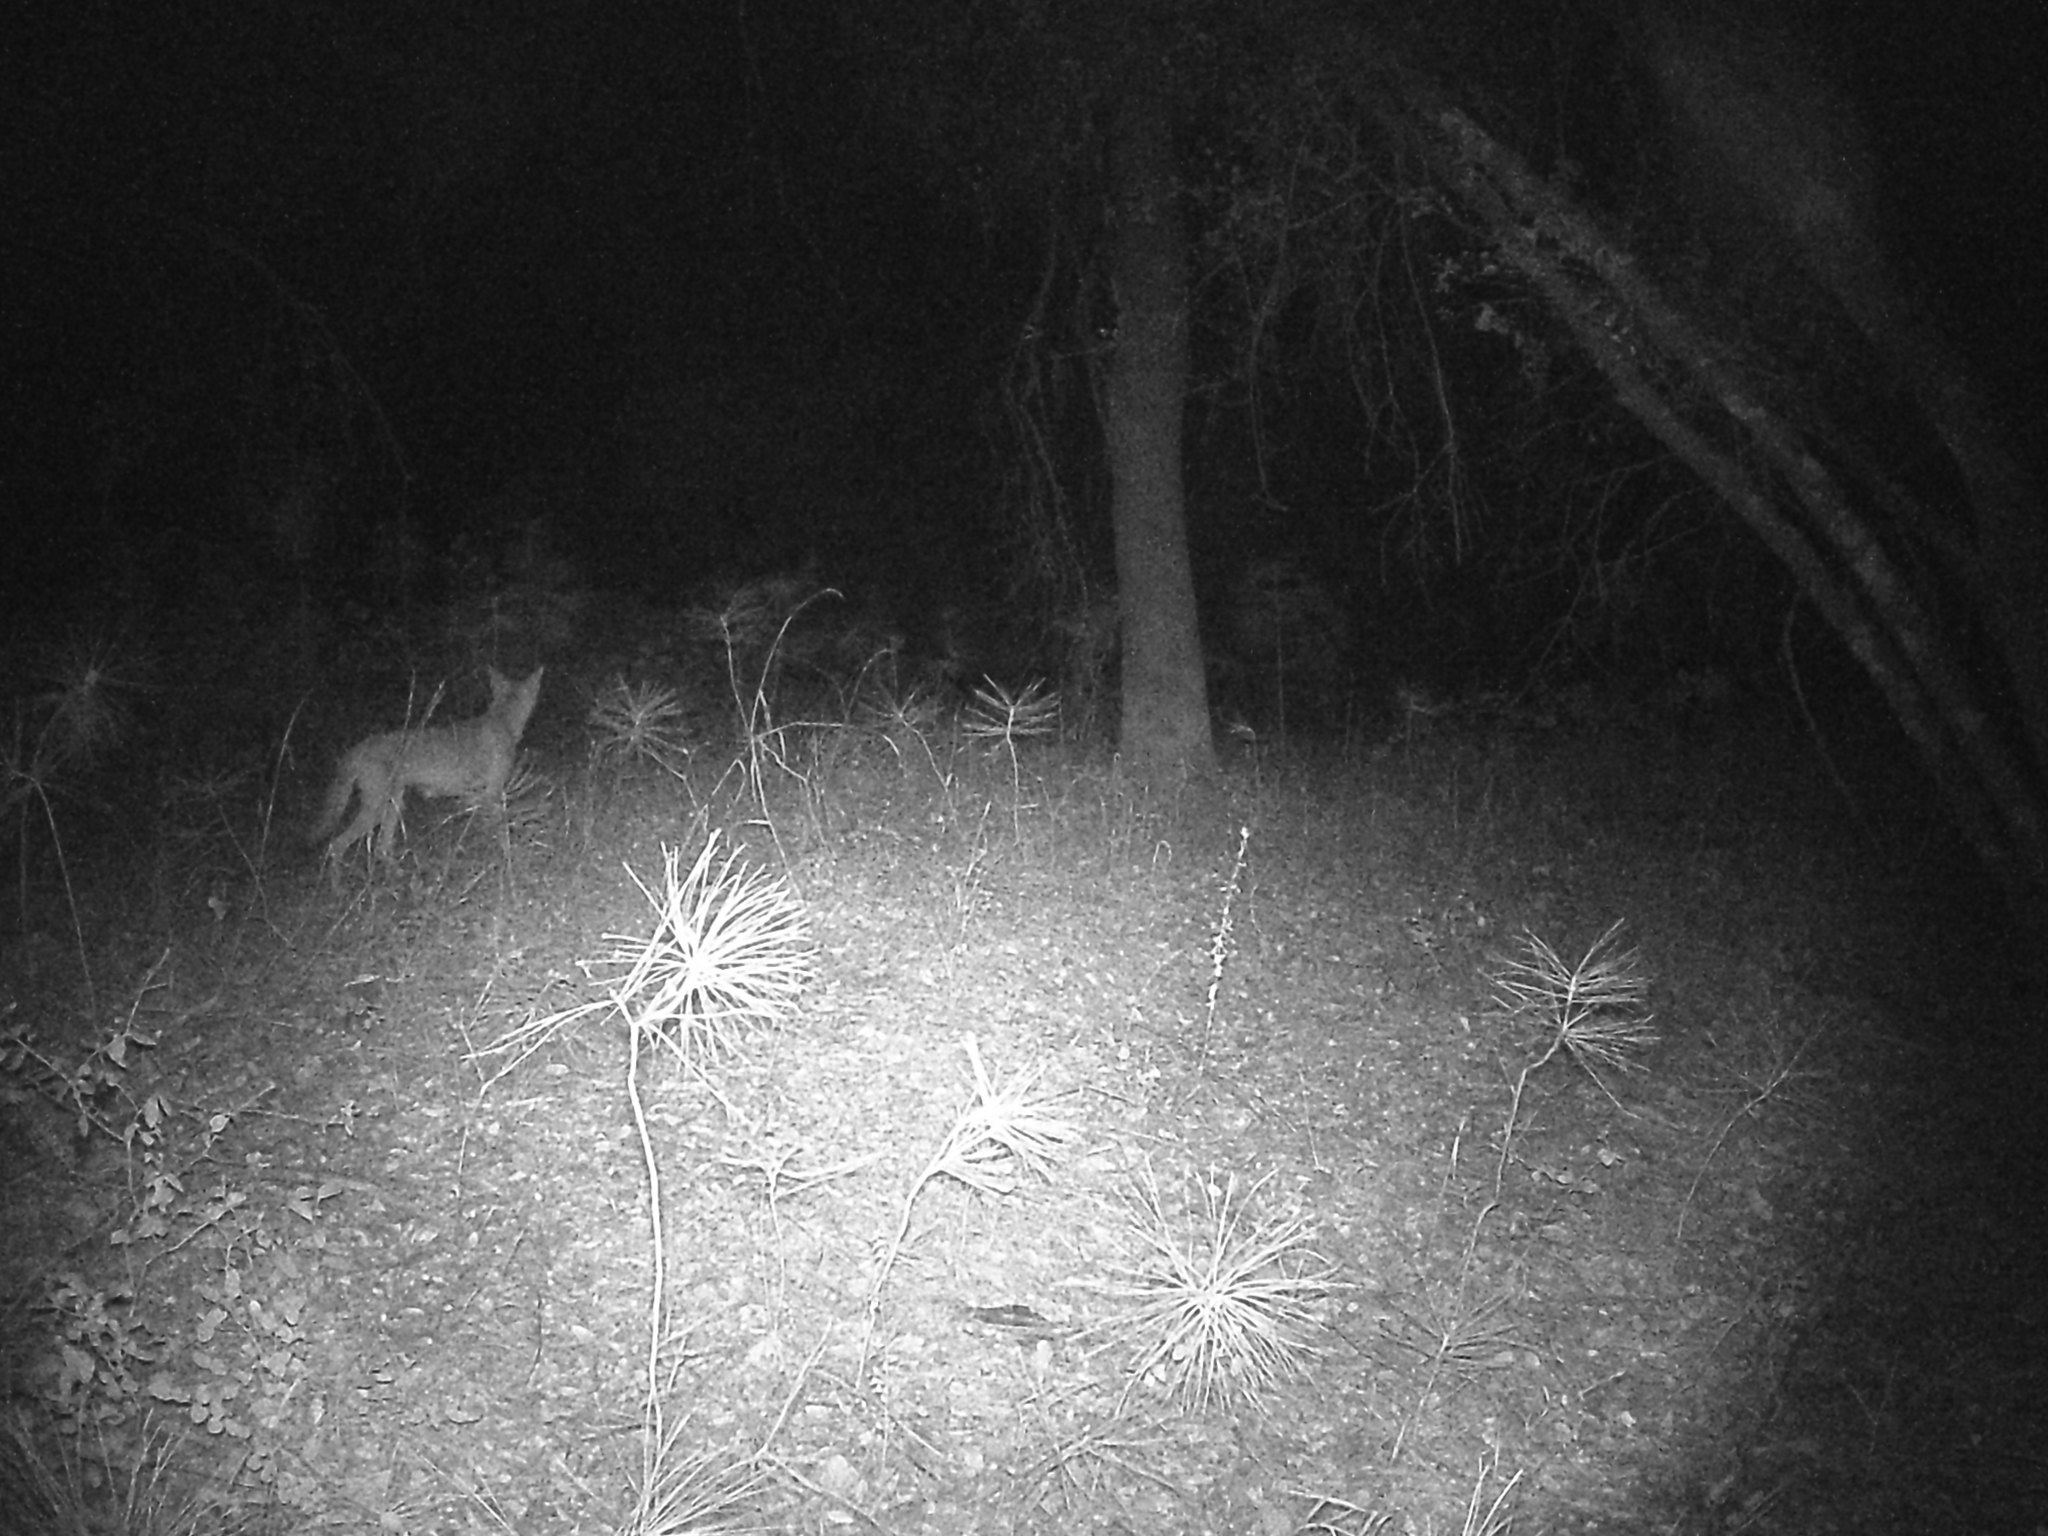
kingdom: Animalia
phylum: Chordata
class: Mammalia
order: Carnivora
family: Canidae
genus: Canis
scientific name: Canis latrans
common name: Coyote
